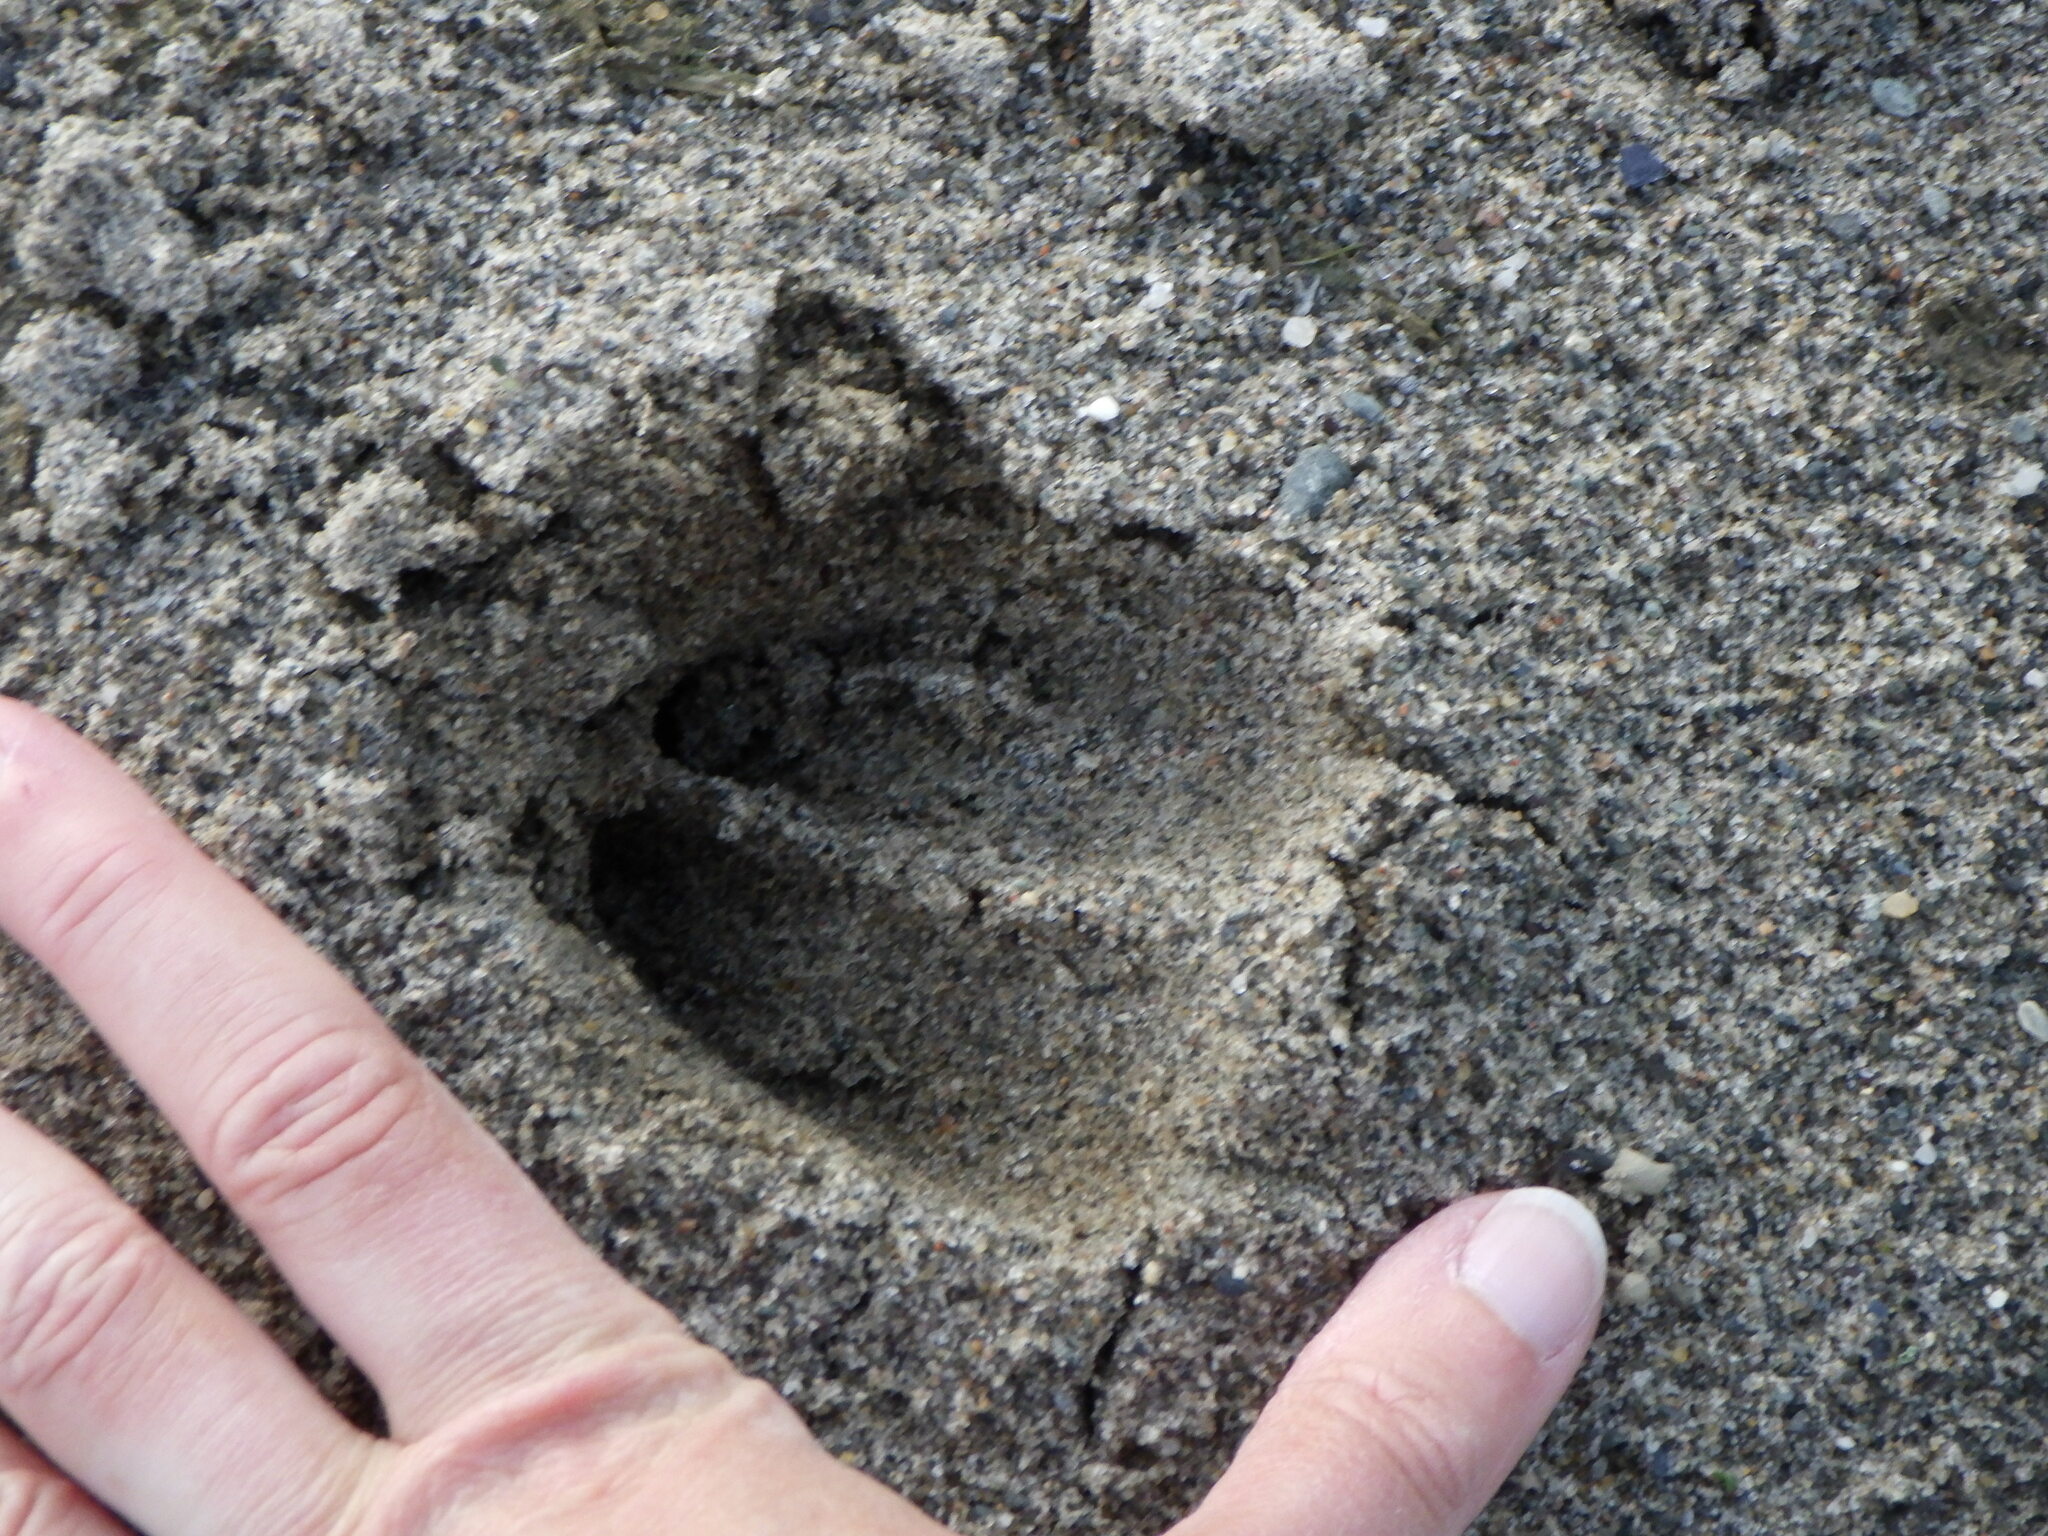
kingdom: Animalia
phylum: Chordata
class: Mammalia
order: Artiodactyla
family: Cervidae
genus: Odocoileus
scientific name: Odocoileus virginianus
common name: White-tailed deer
